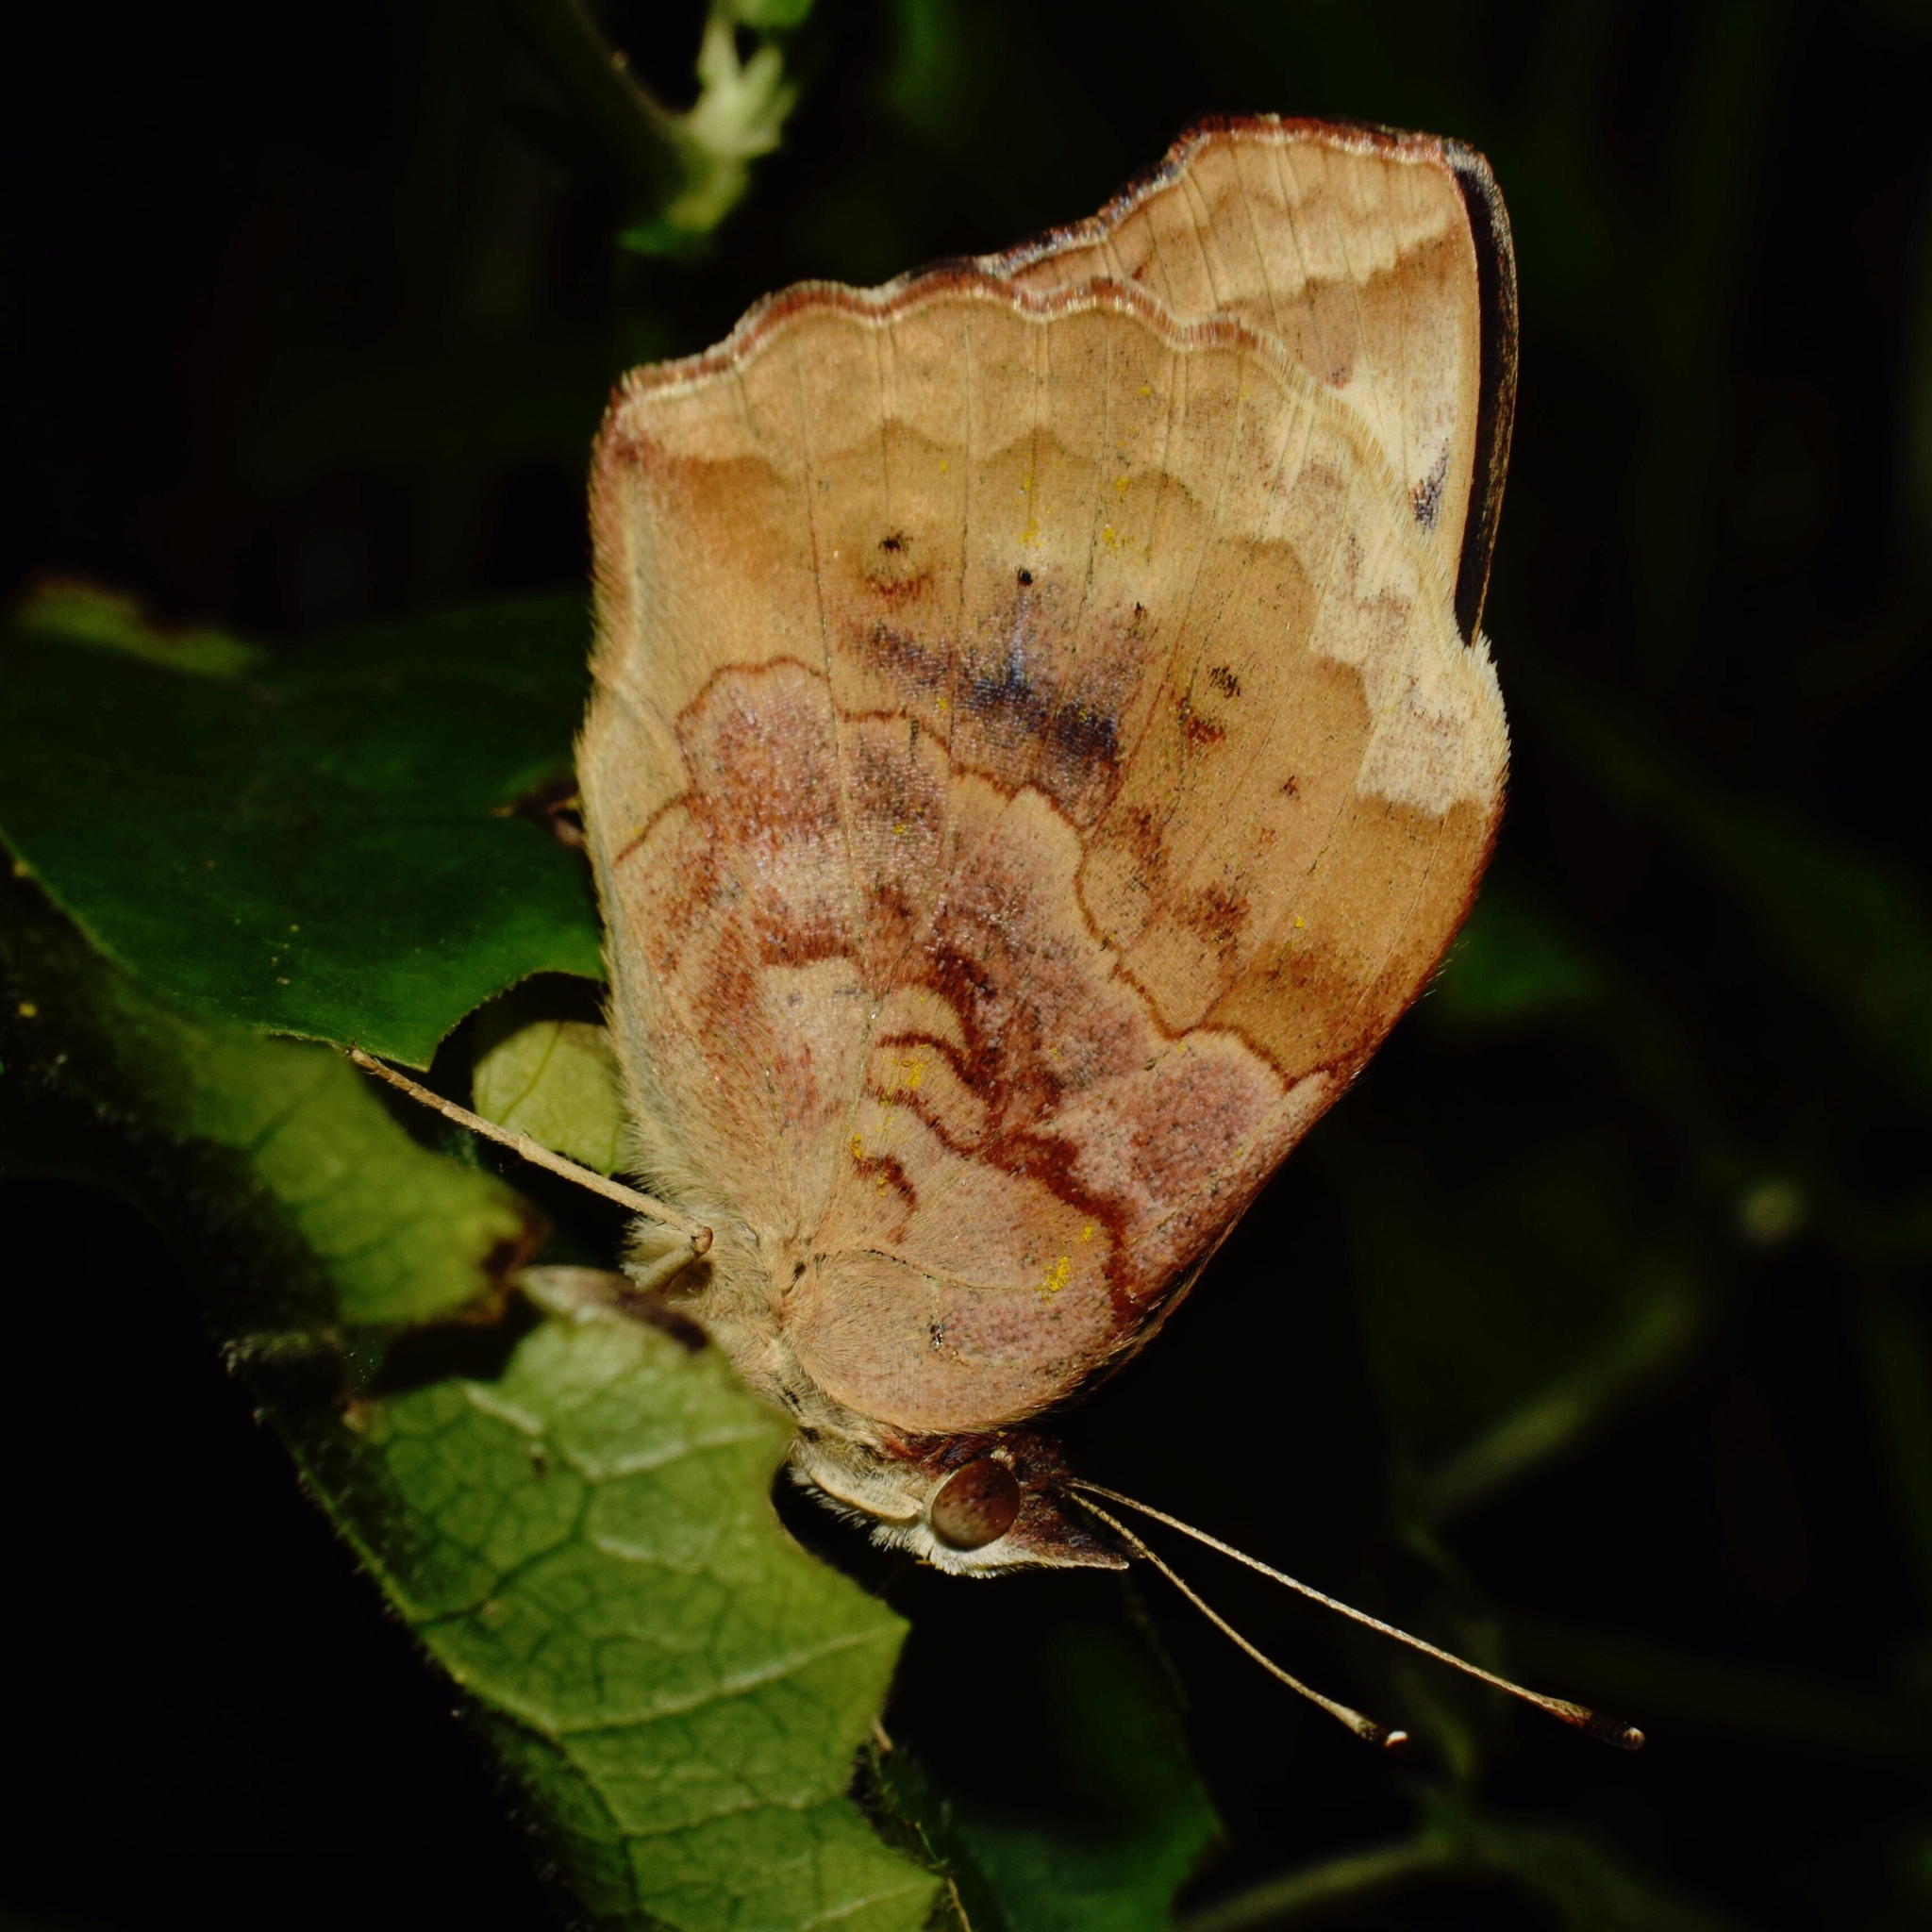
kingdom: Animalia
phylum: Arthropoda
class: Insecta
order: Lepidoptera
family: Nymphalidae
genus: Junonia
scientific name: Junonia oenone
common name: Dark blue pansy
